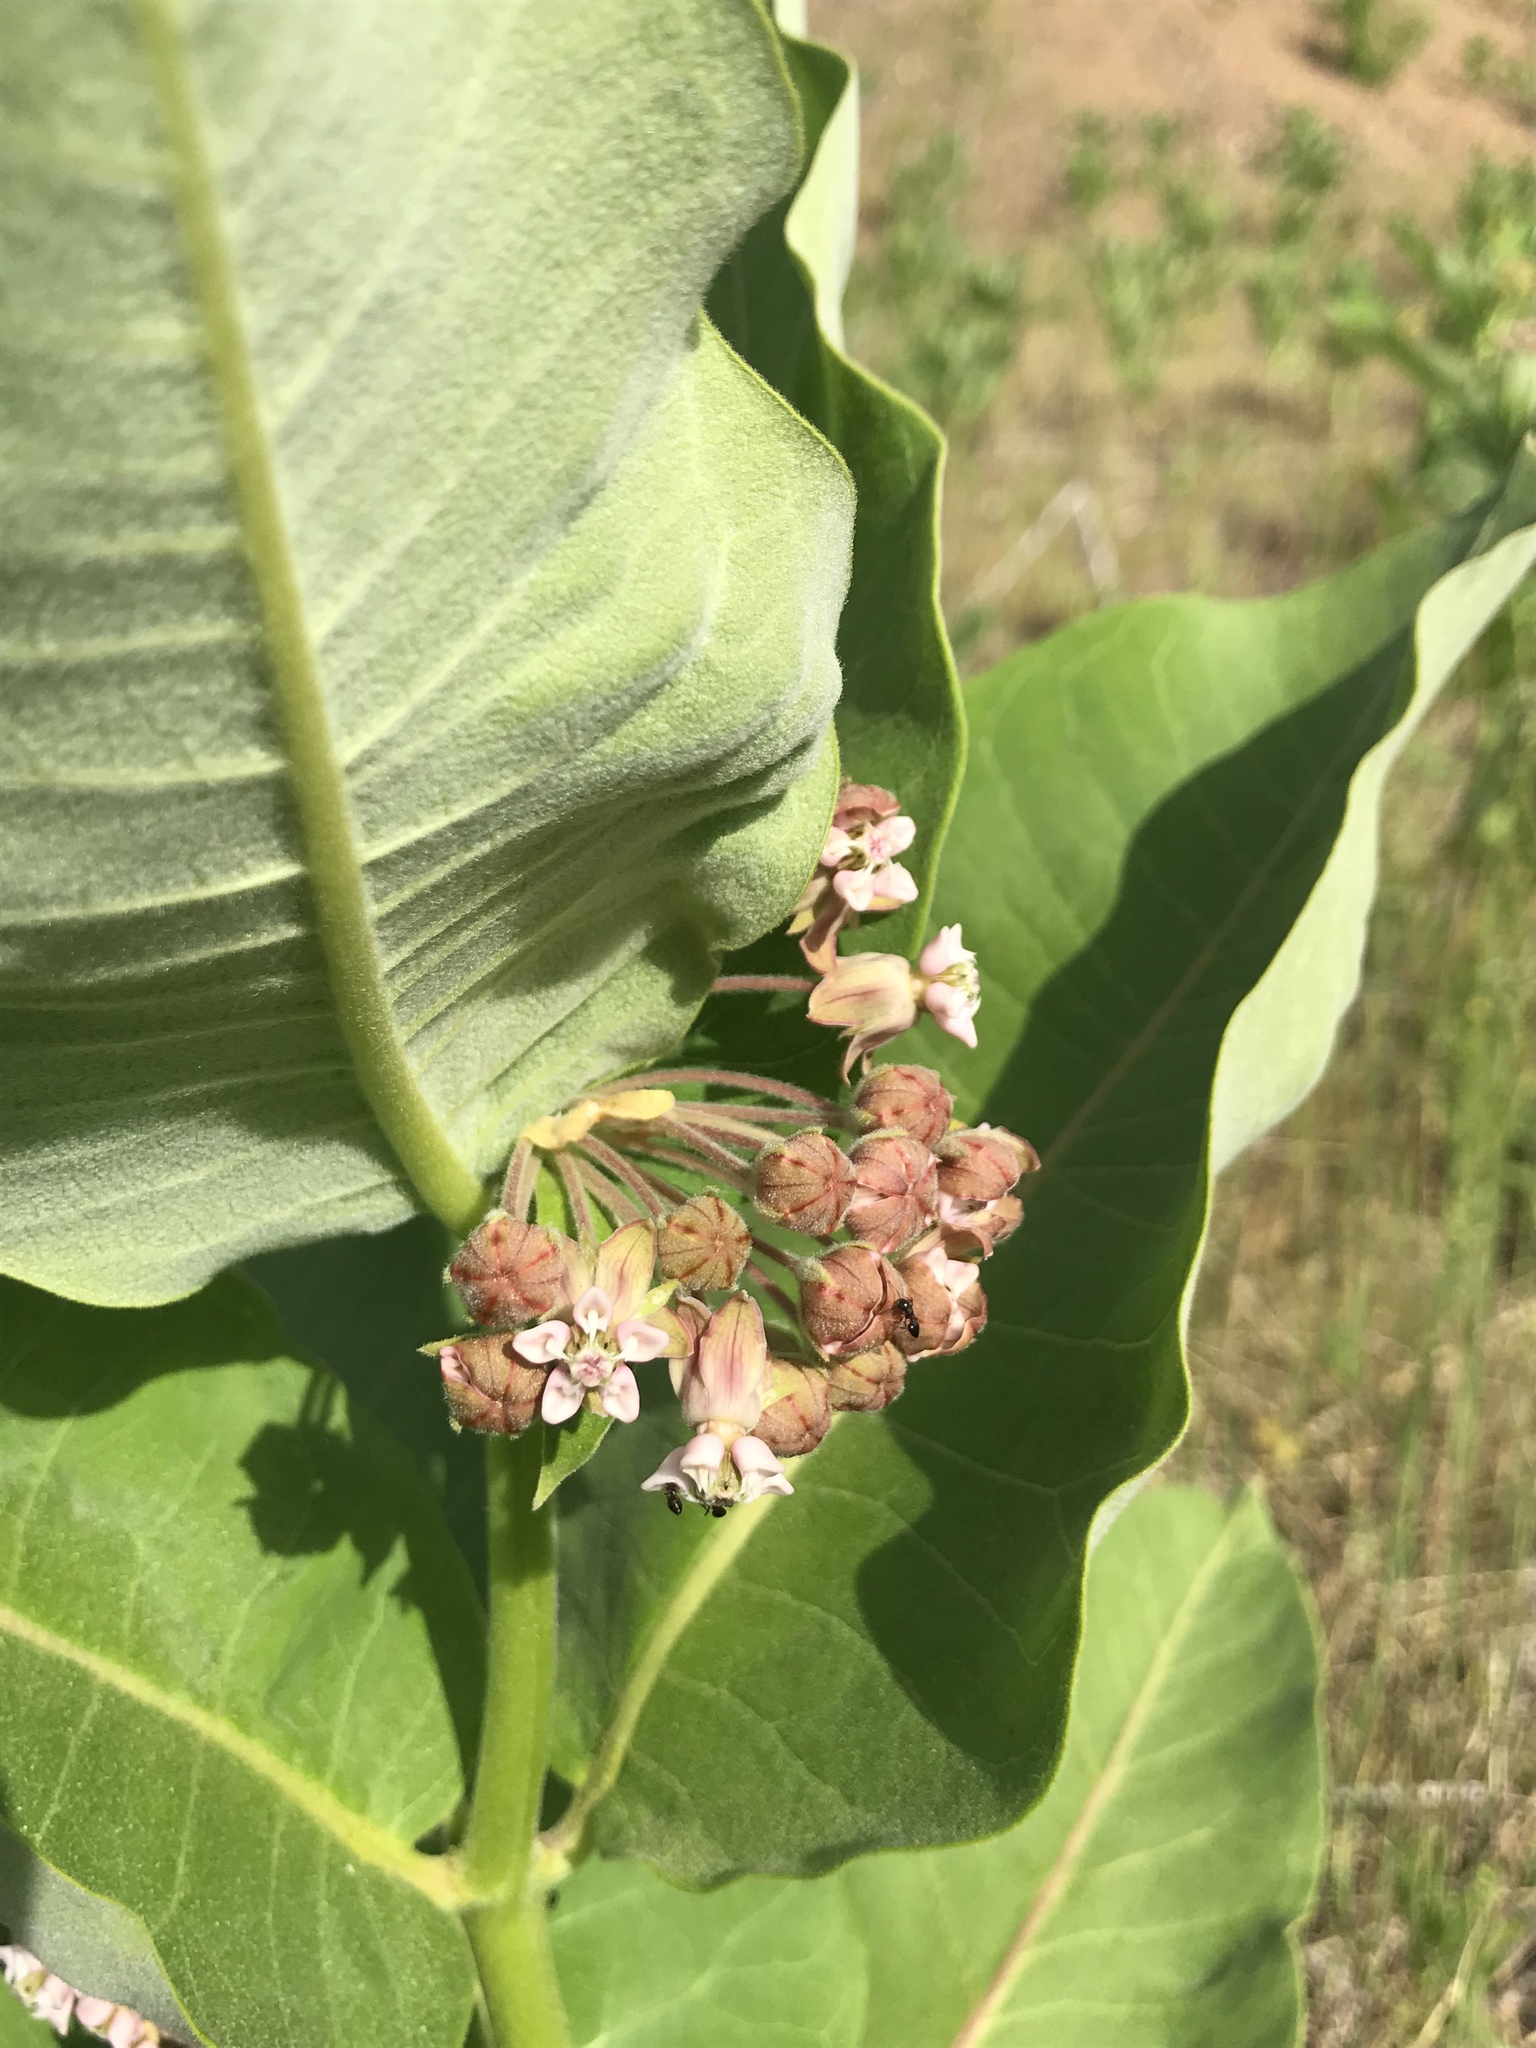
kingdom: Plantae
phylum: Tracheophyta
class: Magnoliopsida
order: Gentianales
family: Apocynaceae
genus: Asclepias
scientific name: Asclepias syriaca
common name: Common milkweed
